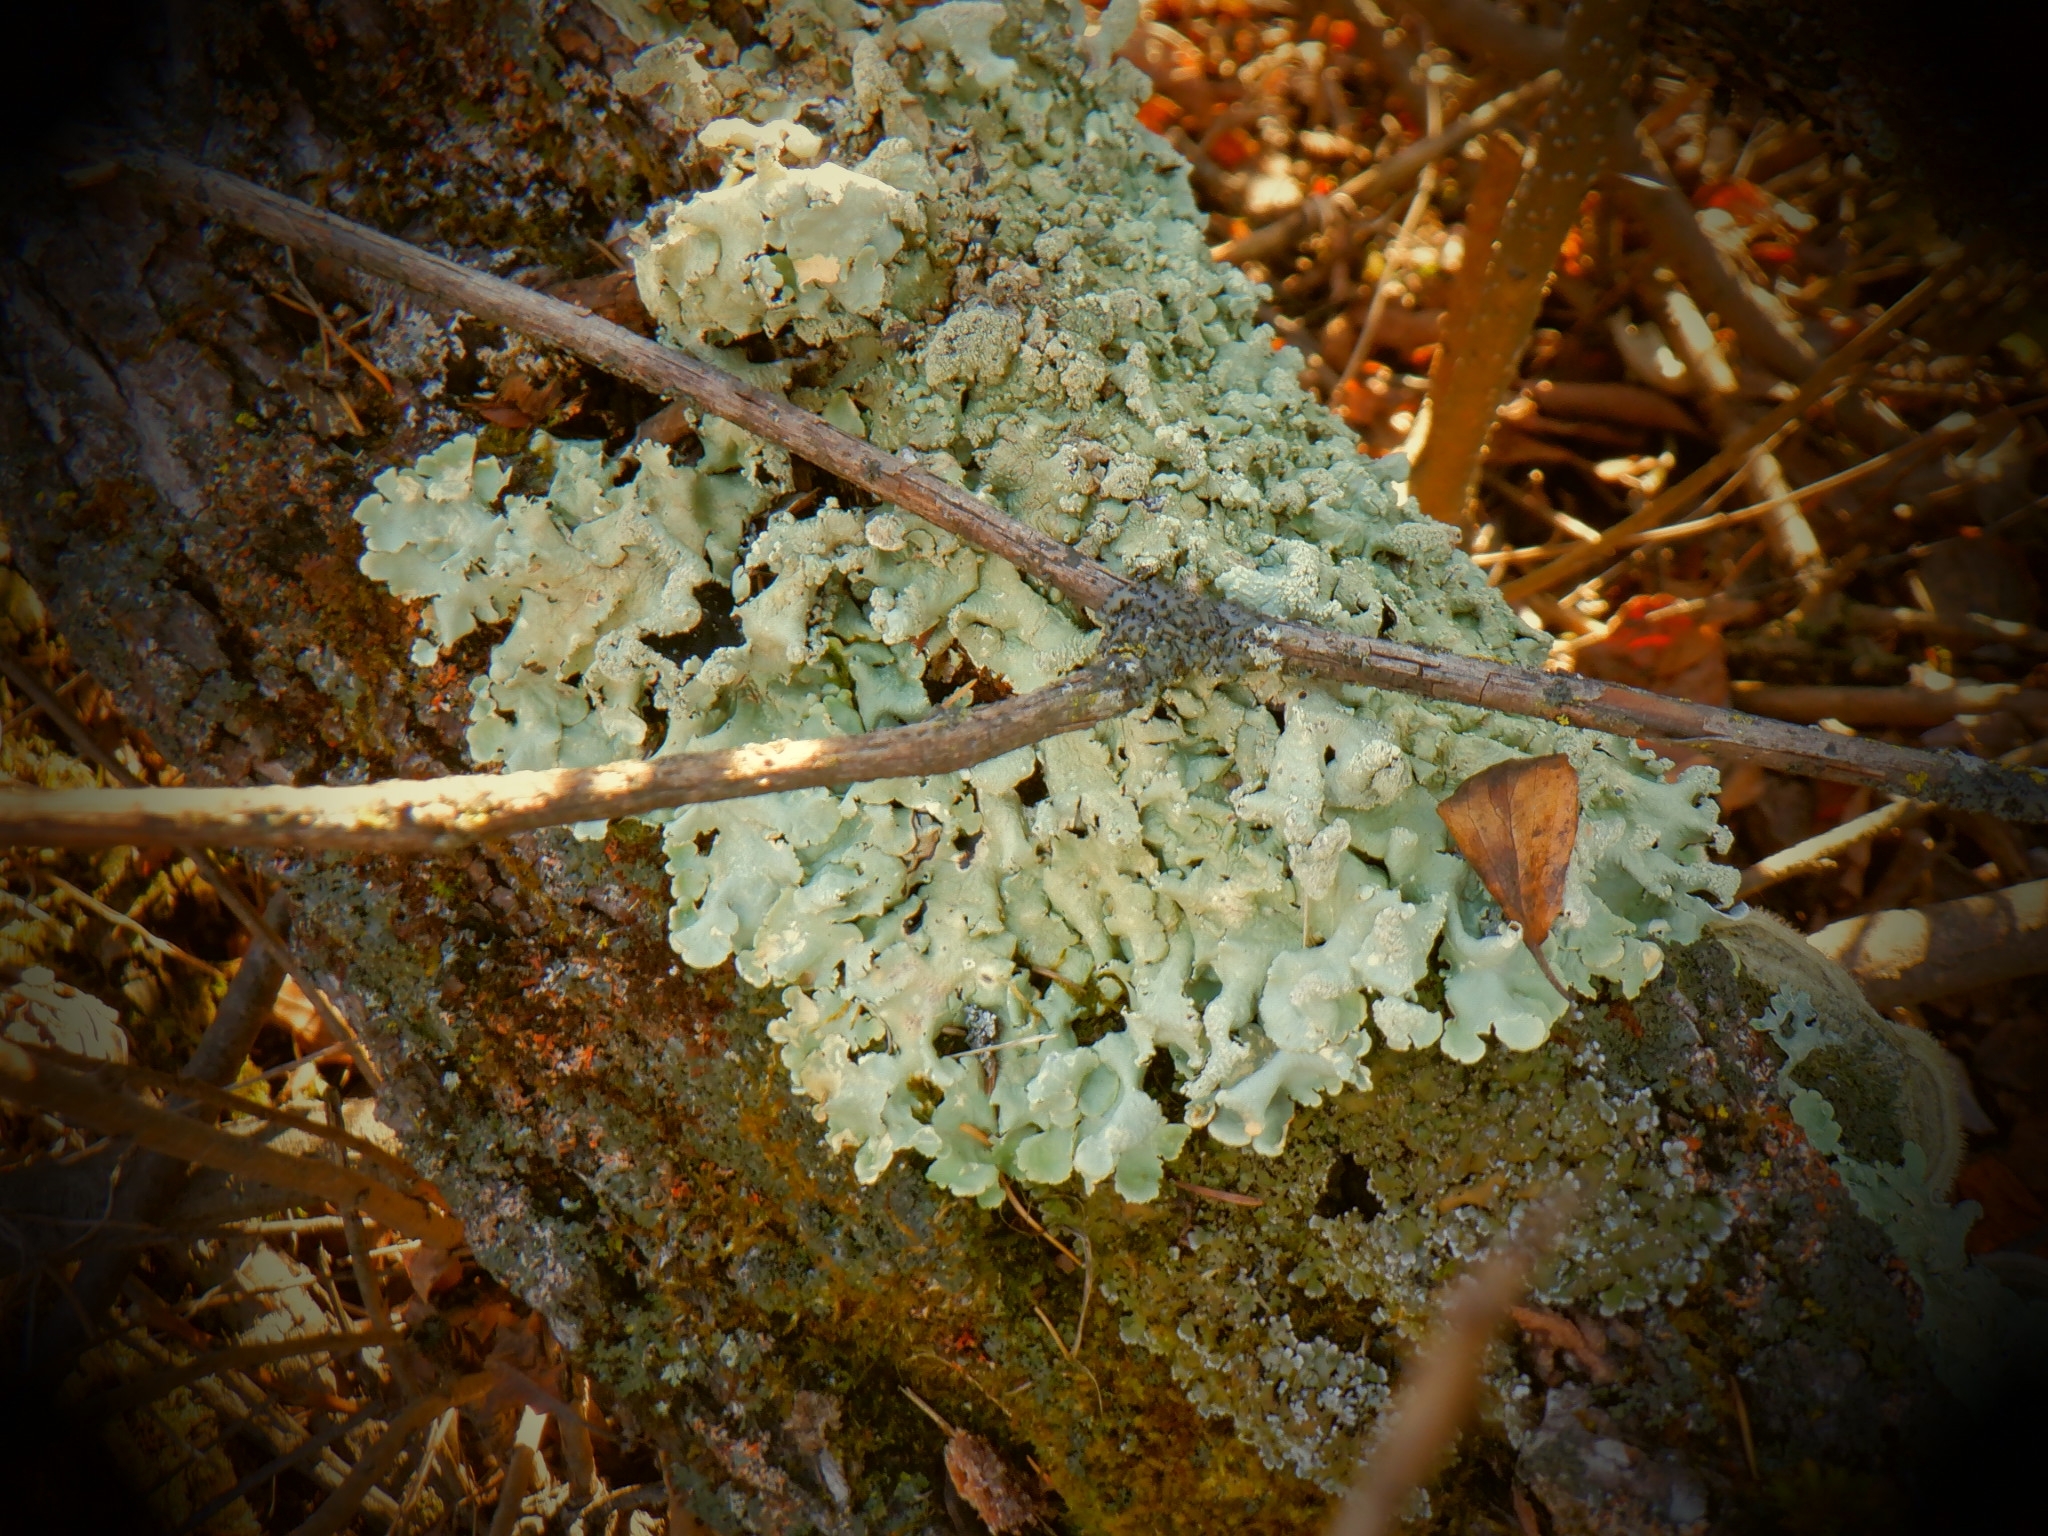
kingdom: Fungi
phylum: Ascomycota
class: Lecanoromycetes
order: Lecanorales
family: Parmeliaceae
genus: Flavoparmelia
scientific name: Flavoparmelia caperata
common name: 40-mile per hour lichen
